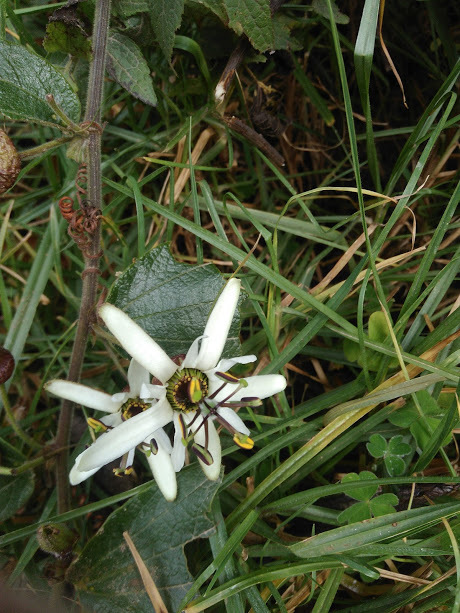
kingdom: Plantae
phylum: Tracheophyta
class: Magnoliopsida
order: Malpighiales
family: Passifloraceae
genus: Passiflora
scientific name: Passiflora bogotensis
